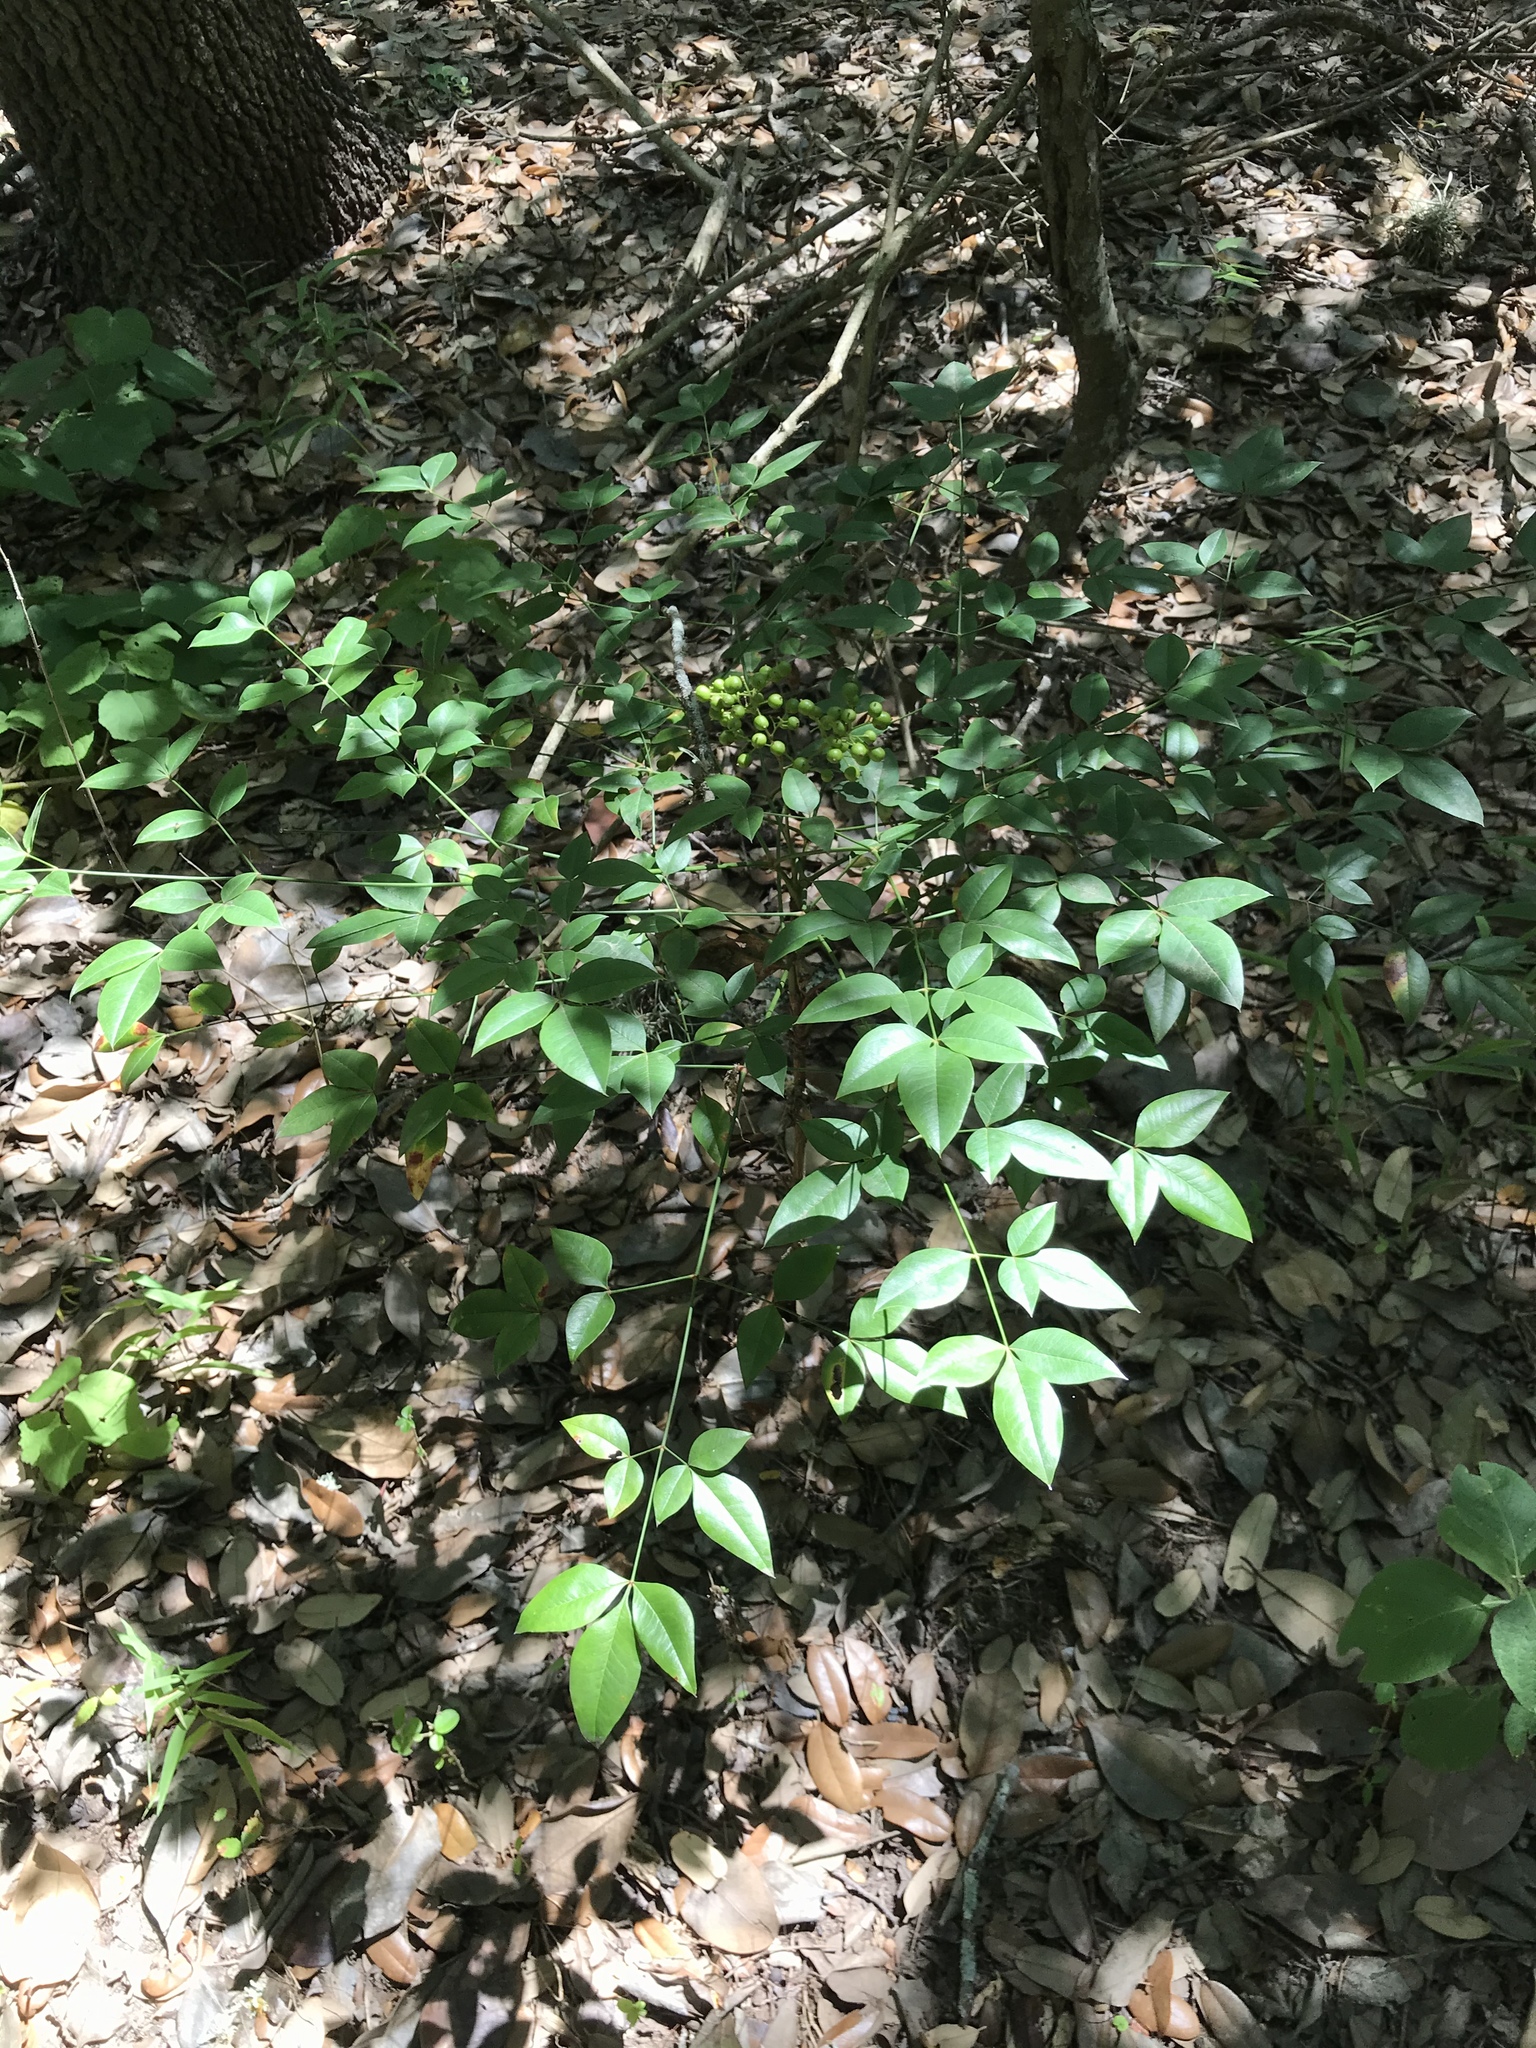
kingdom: Plantae
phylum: Tracheophyta
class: Magnoliopsida
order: Ranunculales
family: Berberidaceae
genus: Nandina
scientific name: Nandina domestica
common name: Sacred bamboo
